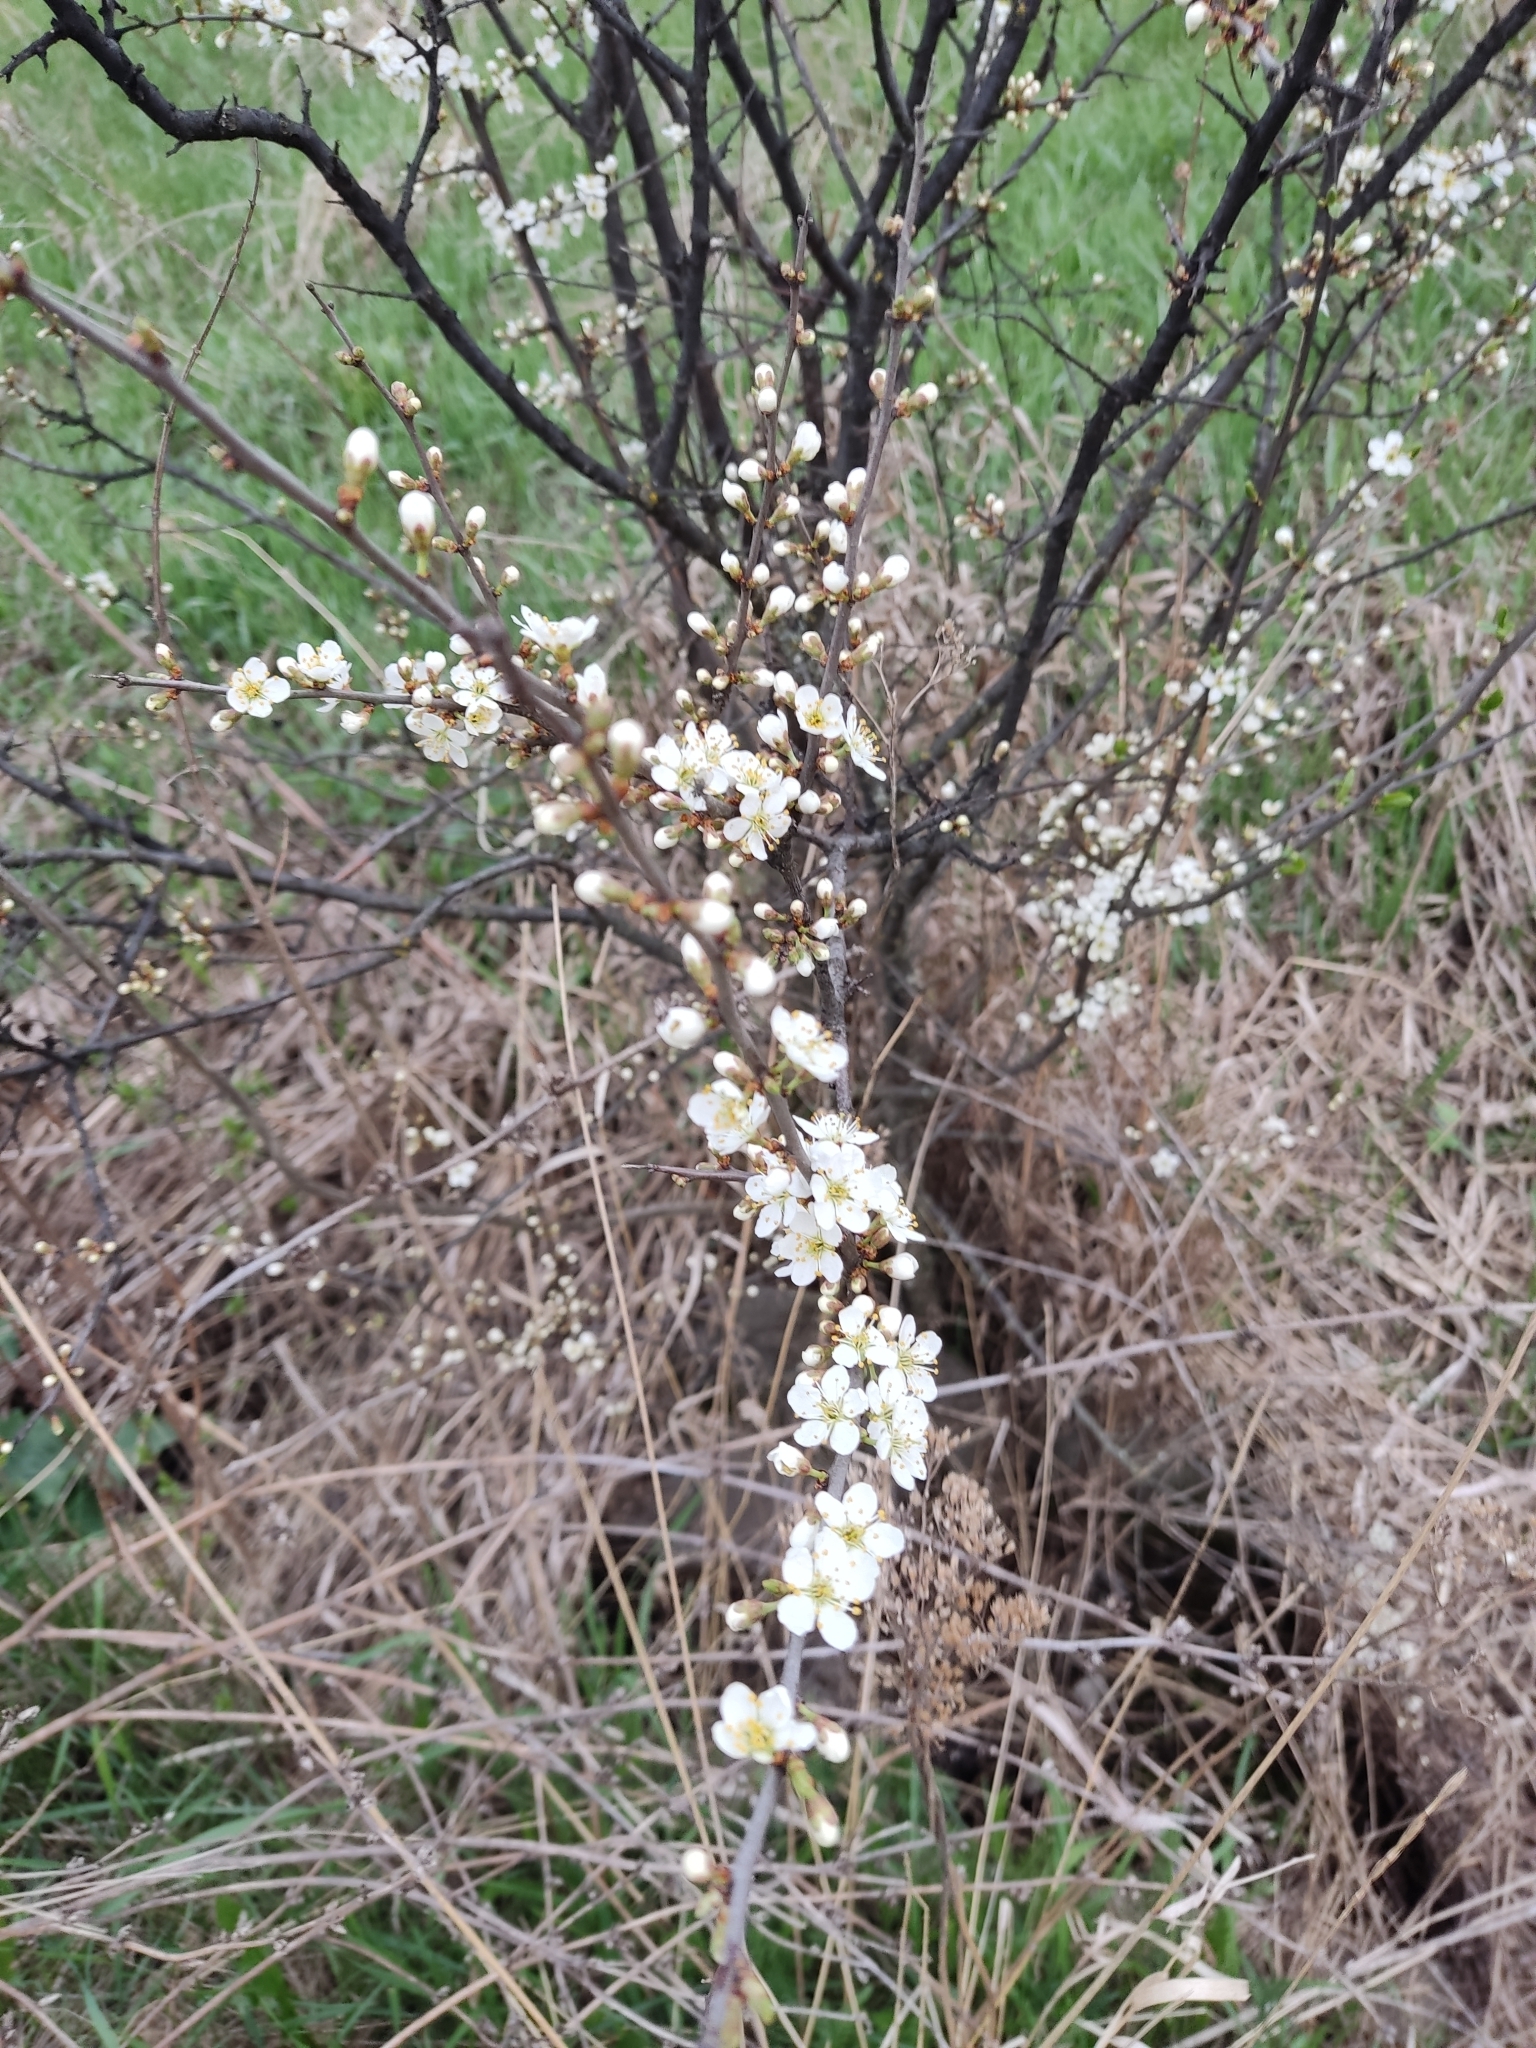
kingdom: Plantae
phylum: Tracheophyta
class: Magnoliopsida
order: Rosales
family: Rosaceae
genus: Prunus
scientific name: Prunus spinosa
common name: Blackthorn
